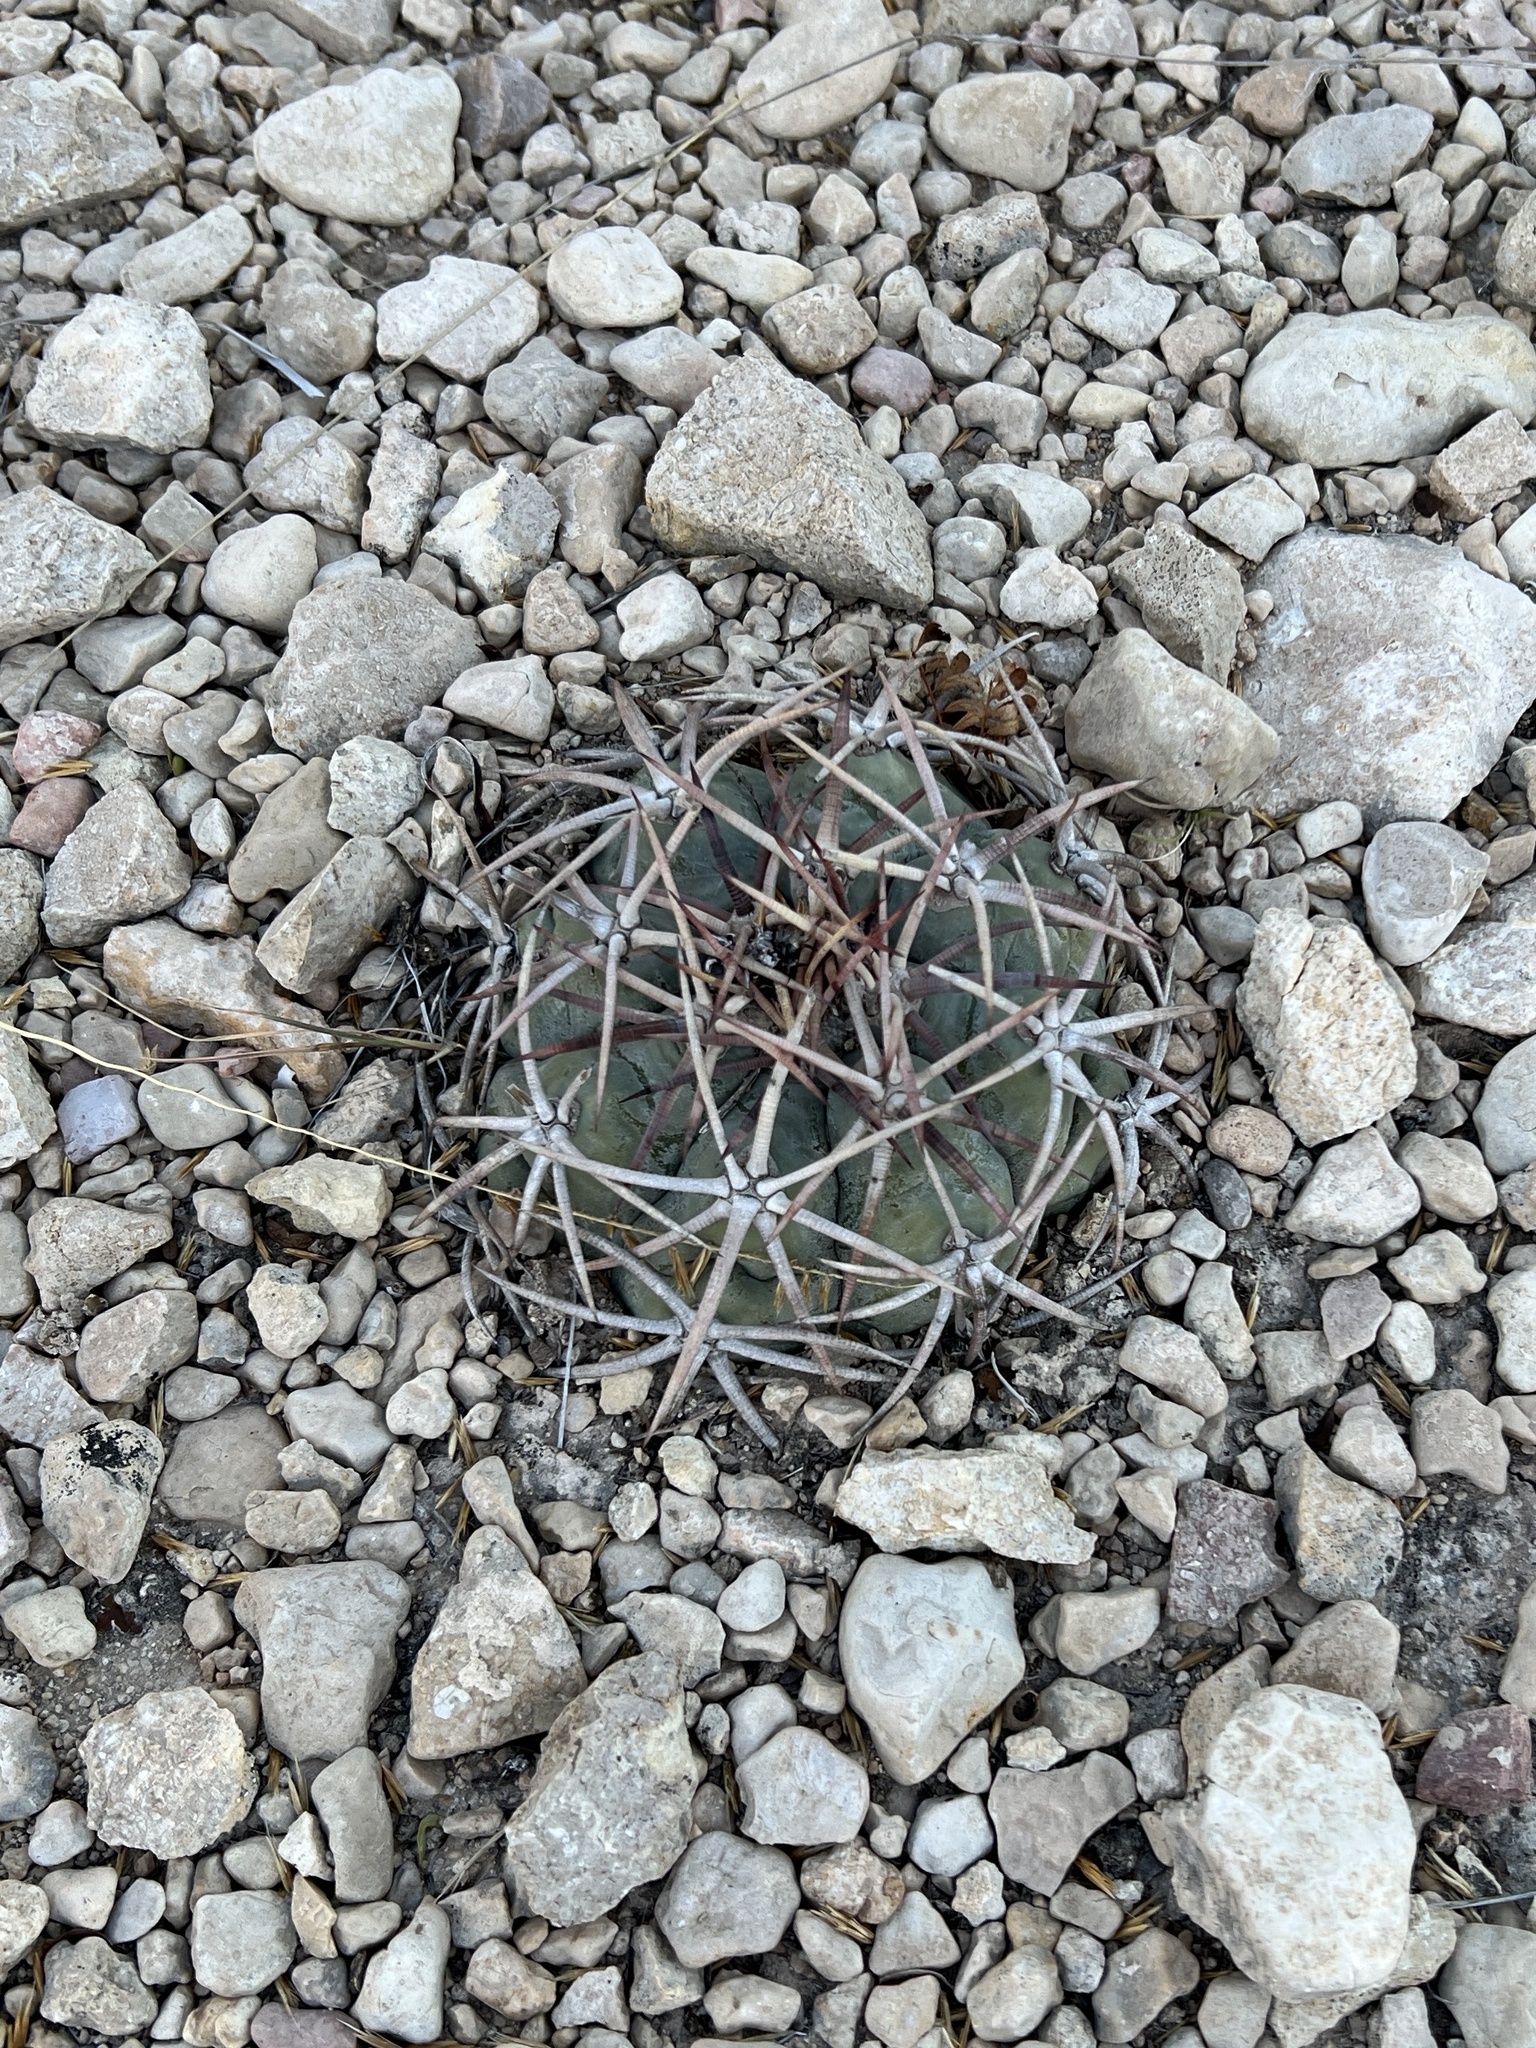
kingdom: Plantae
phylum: Tracheophyta
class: Magnoliopsida
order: Caryophyllales
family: Cactaceae
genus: Echinocactus
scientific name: Echinocactus horizonthalonius
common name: Devilshead
